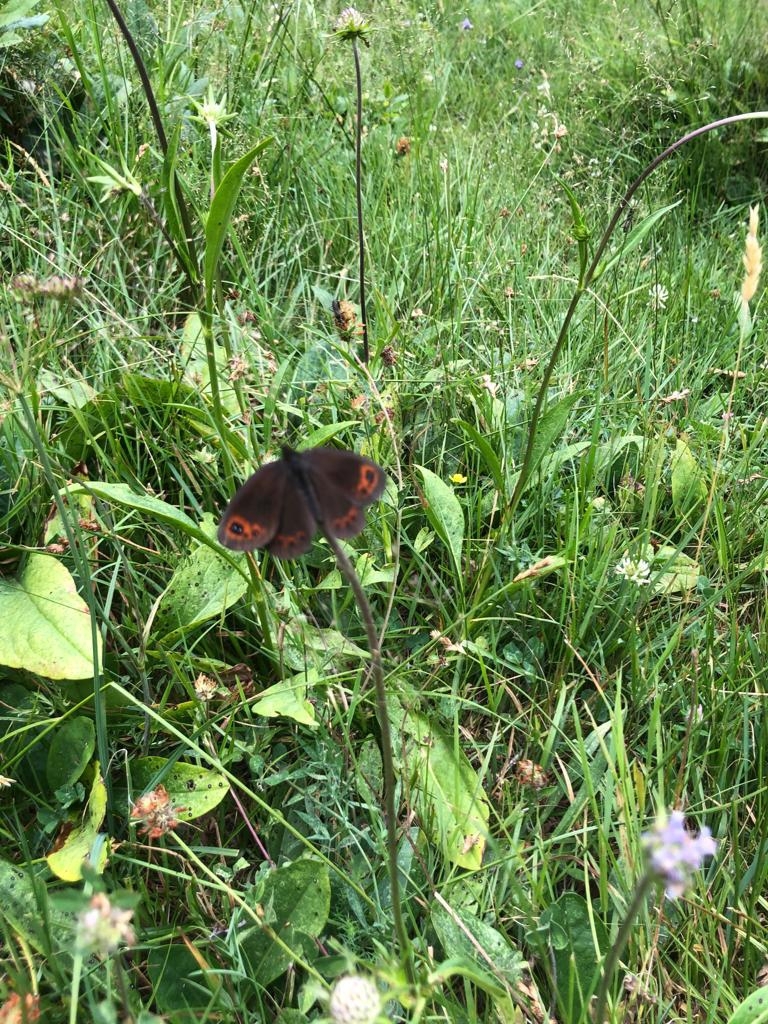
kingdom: Animalia
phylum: Arthropoda
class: Insecta
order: Lepidoptera
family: Nymphalidae
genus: Erebia
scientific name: Erebia neoridas
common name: Autumn ringlet
